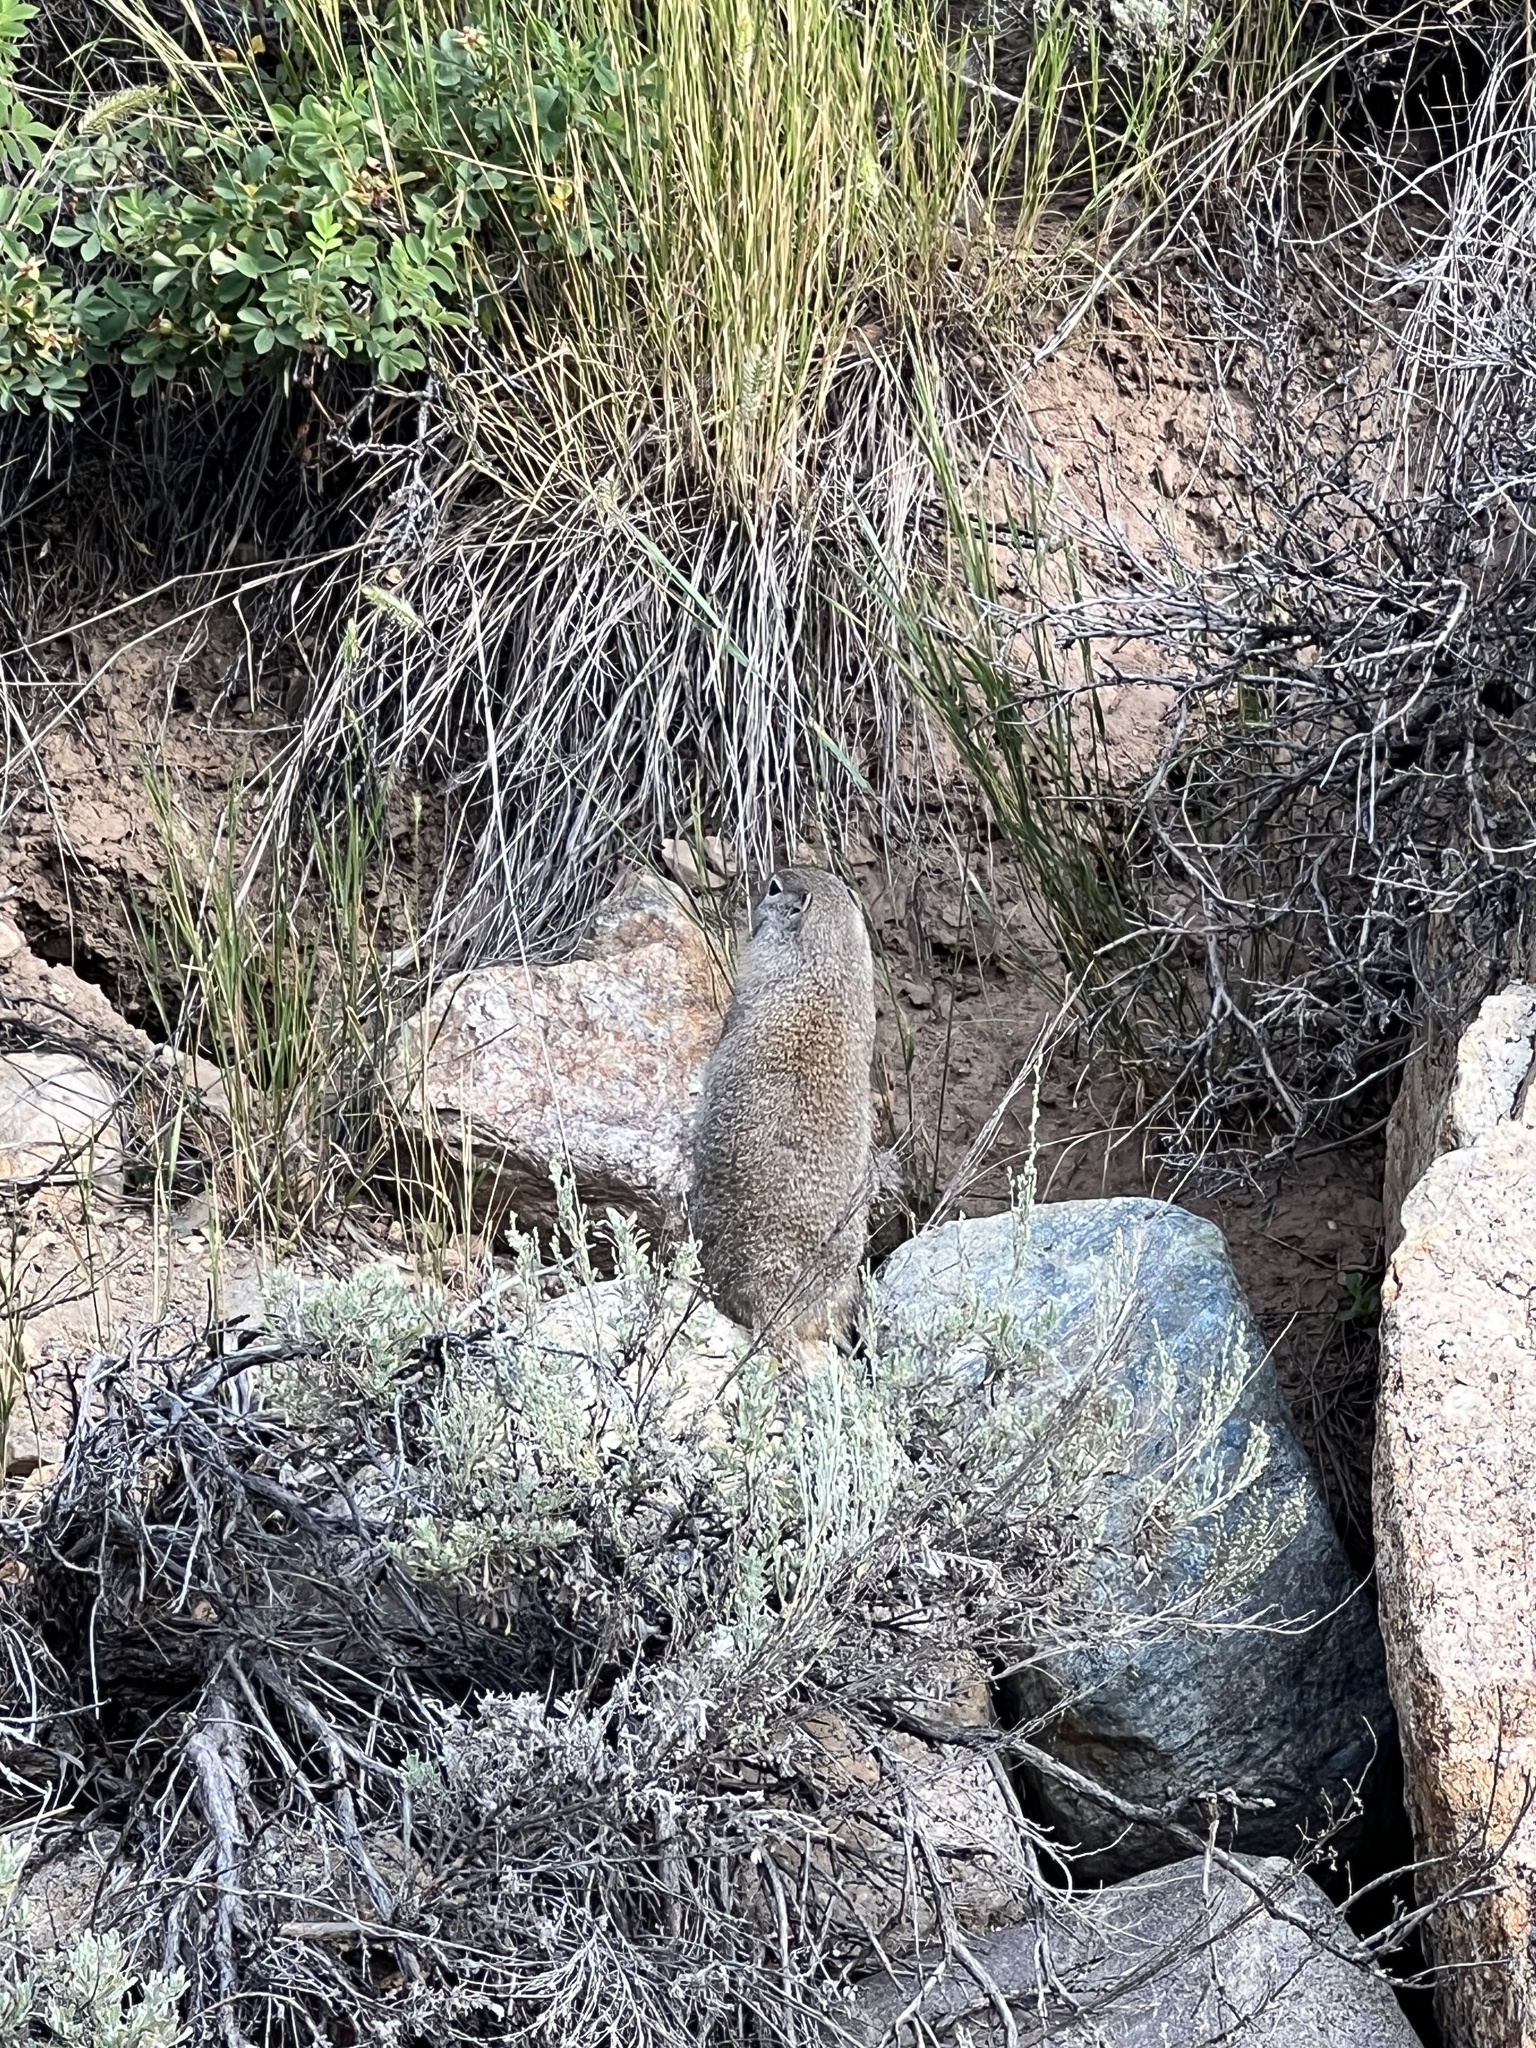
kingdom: Animalia
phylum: Chordata
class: Mammalia
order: Rodentia
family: Sciuridae
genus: Urocitellus
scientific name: Urocitellus elegans
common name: Wyoming ground squirrel
